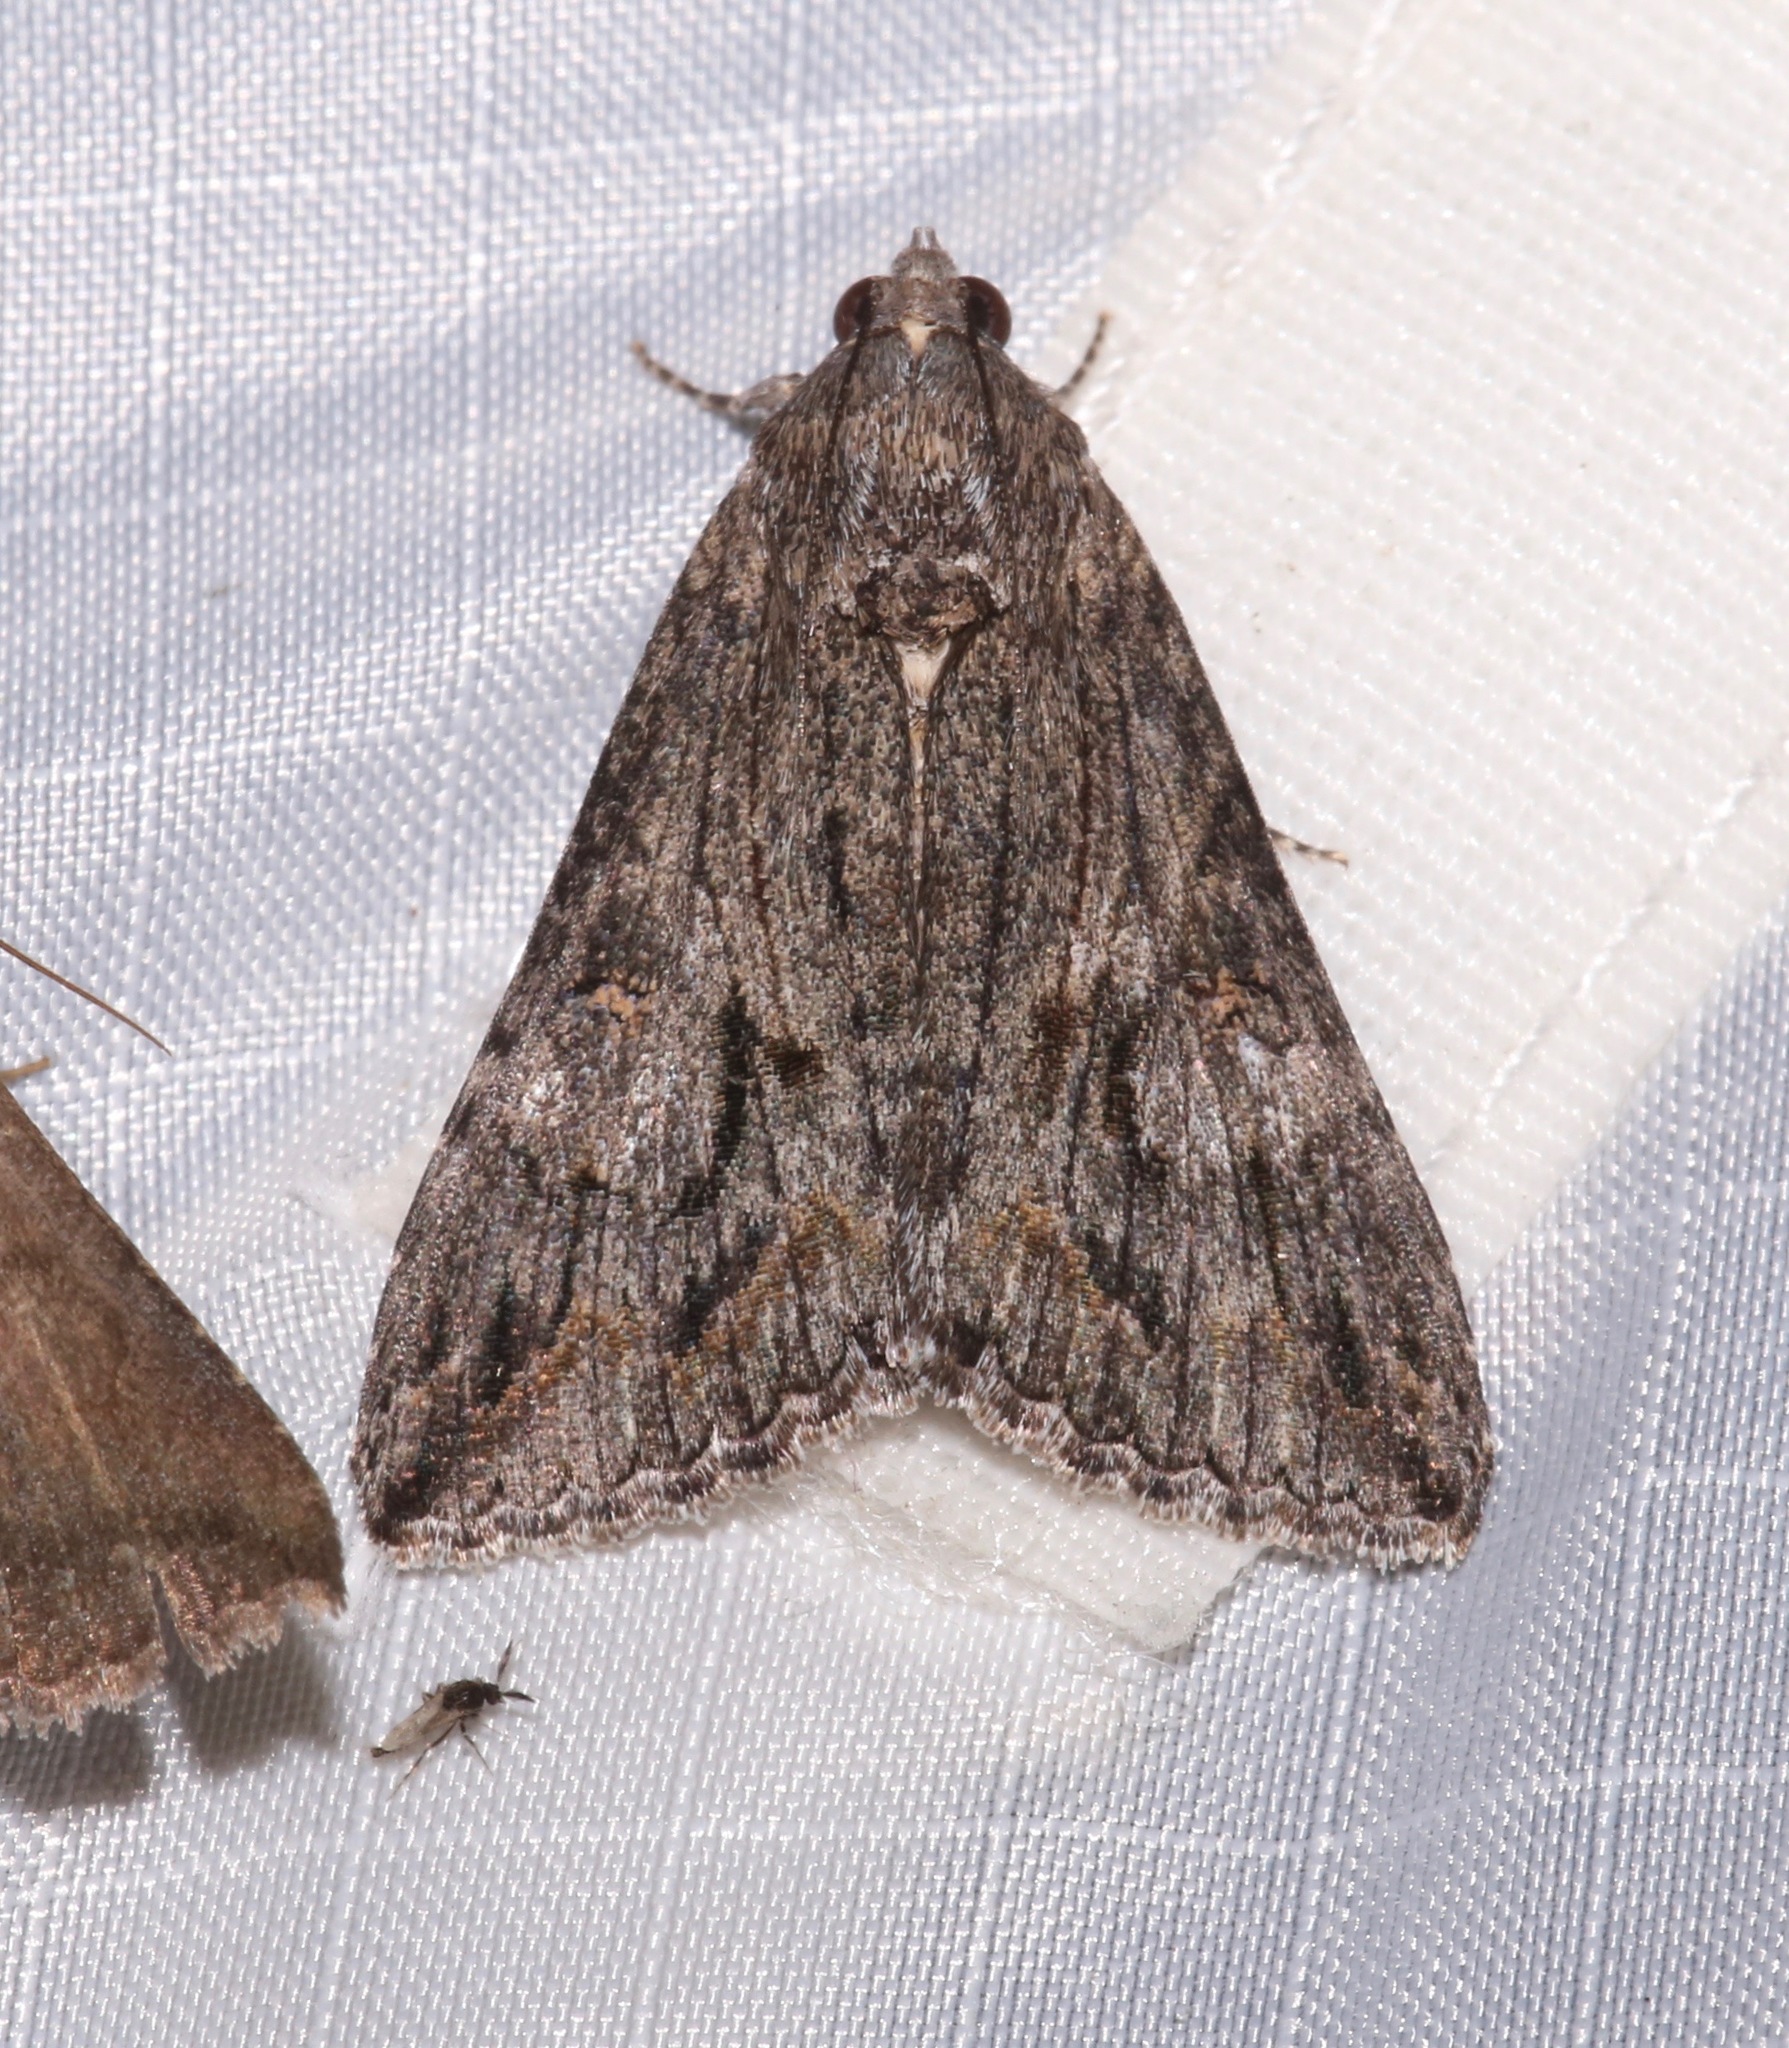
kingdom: Animalia
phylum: Arthropoda
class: Insecta
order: Lepidoptera
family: Erebidae
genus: Melipotis
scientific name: Melipotis jucunda
